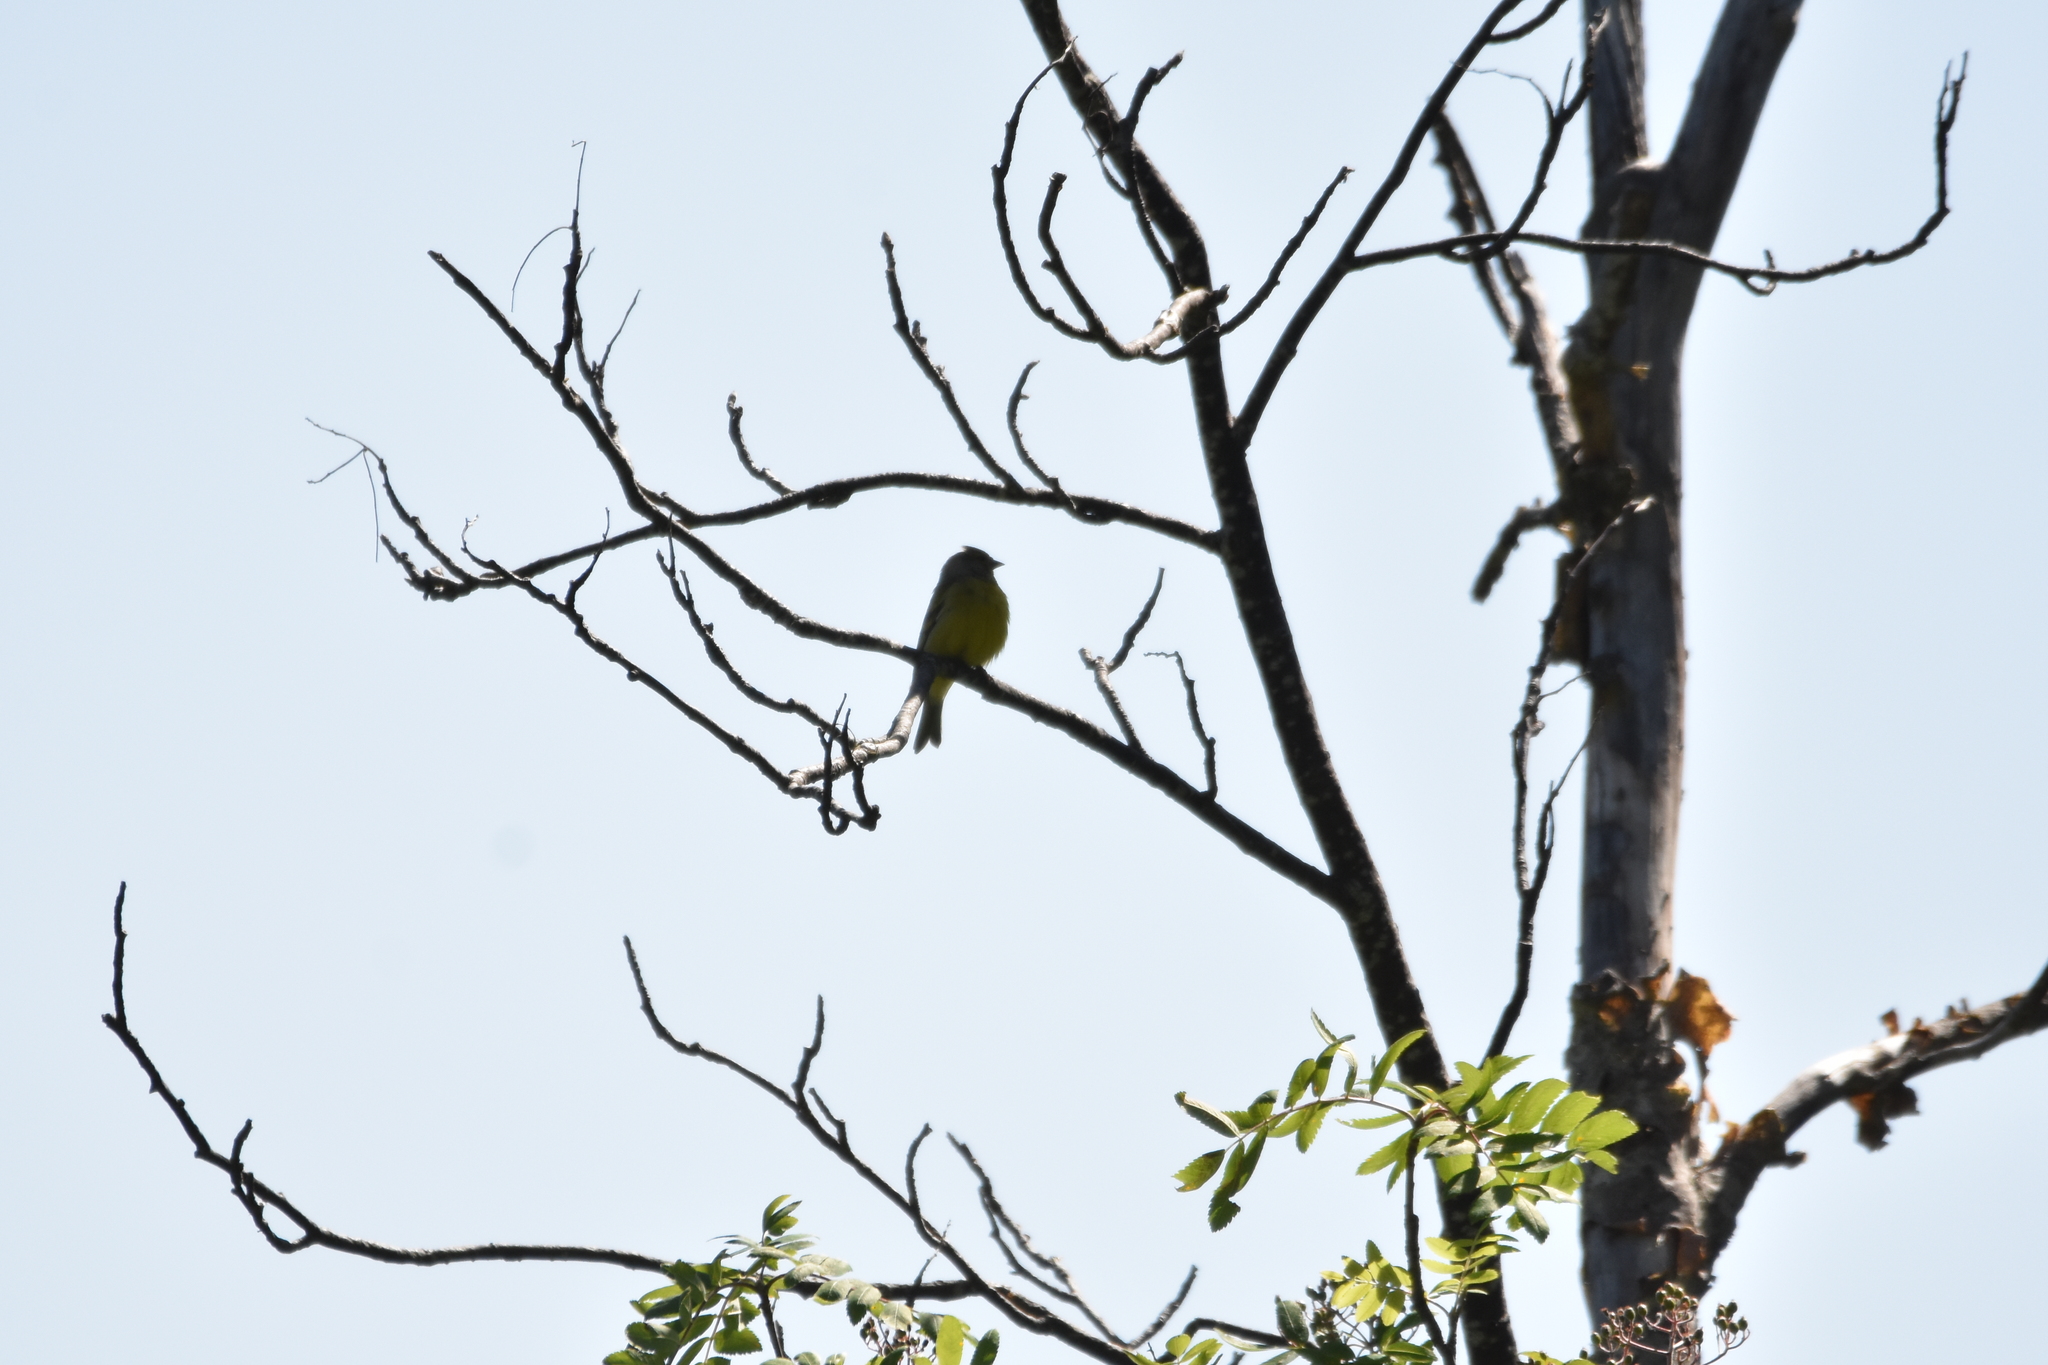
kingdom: Animalia
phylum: Chordata
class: Aves
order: Passeriformes
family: Fringillidae
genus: Carduelis
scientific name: Carduelis citrinella
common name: Citril finch
